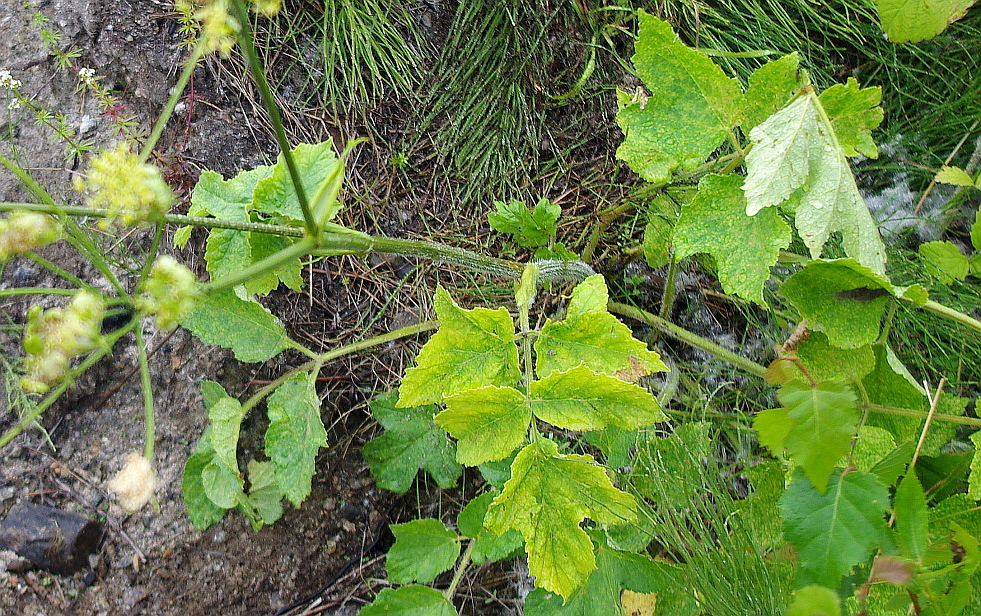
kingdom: Plantae
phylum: Tracheophyta
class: Magnoliopsida
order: Apiales
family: Apiaceae
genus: Heracleum
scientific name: Heracleum sphondylium
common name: Hogweed
